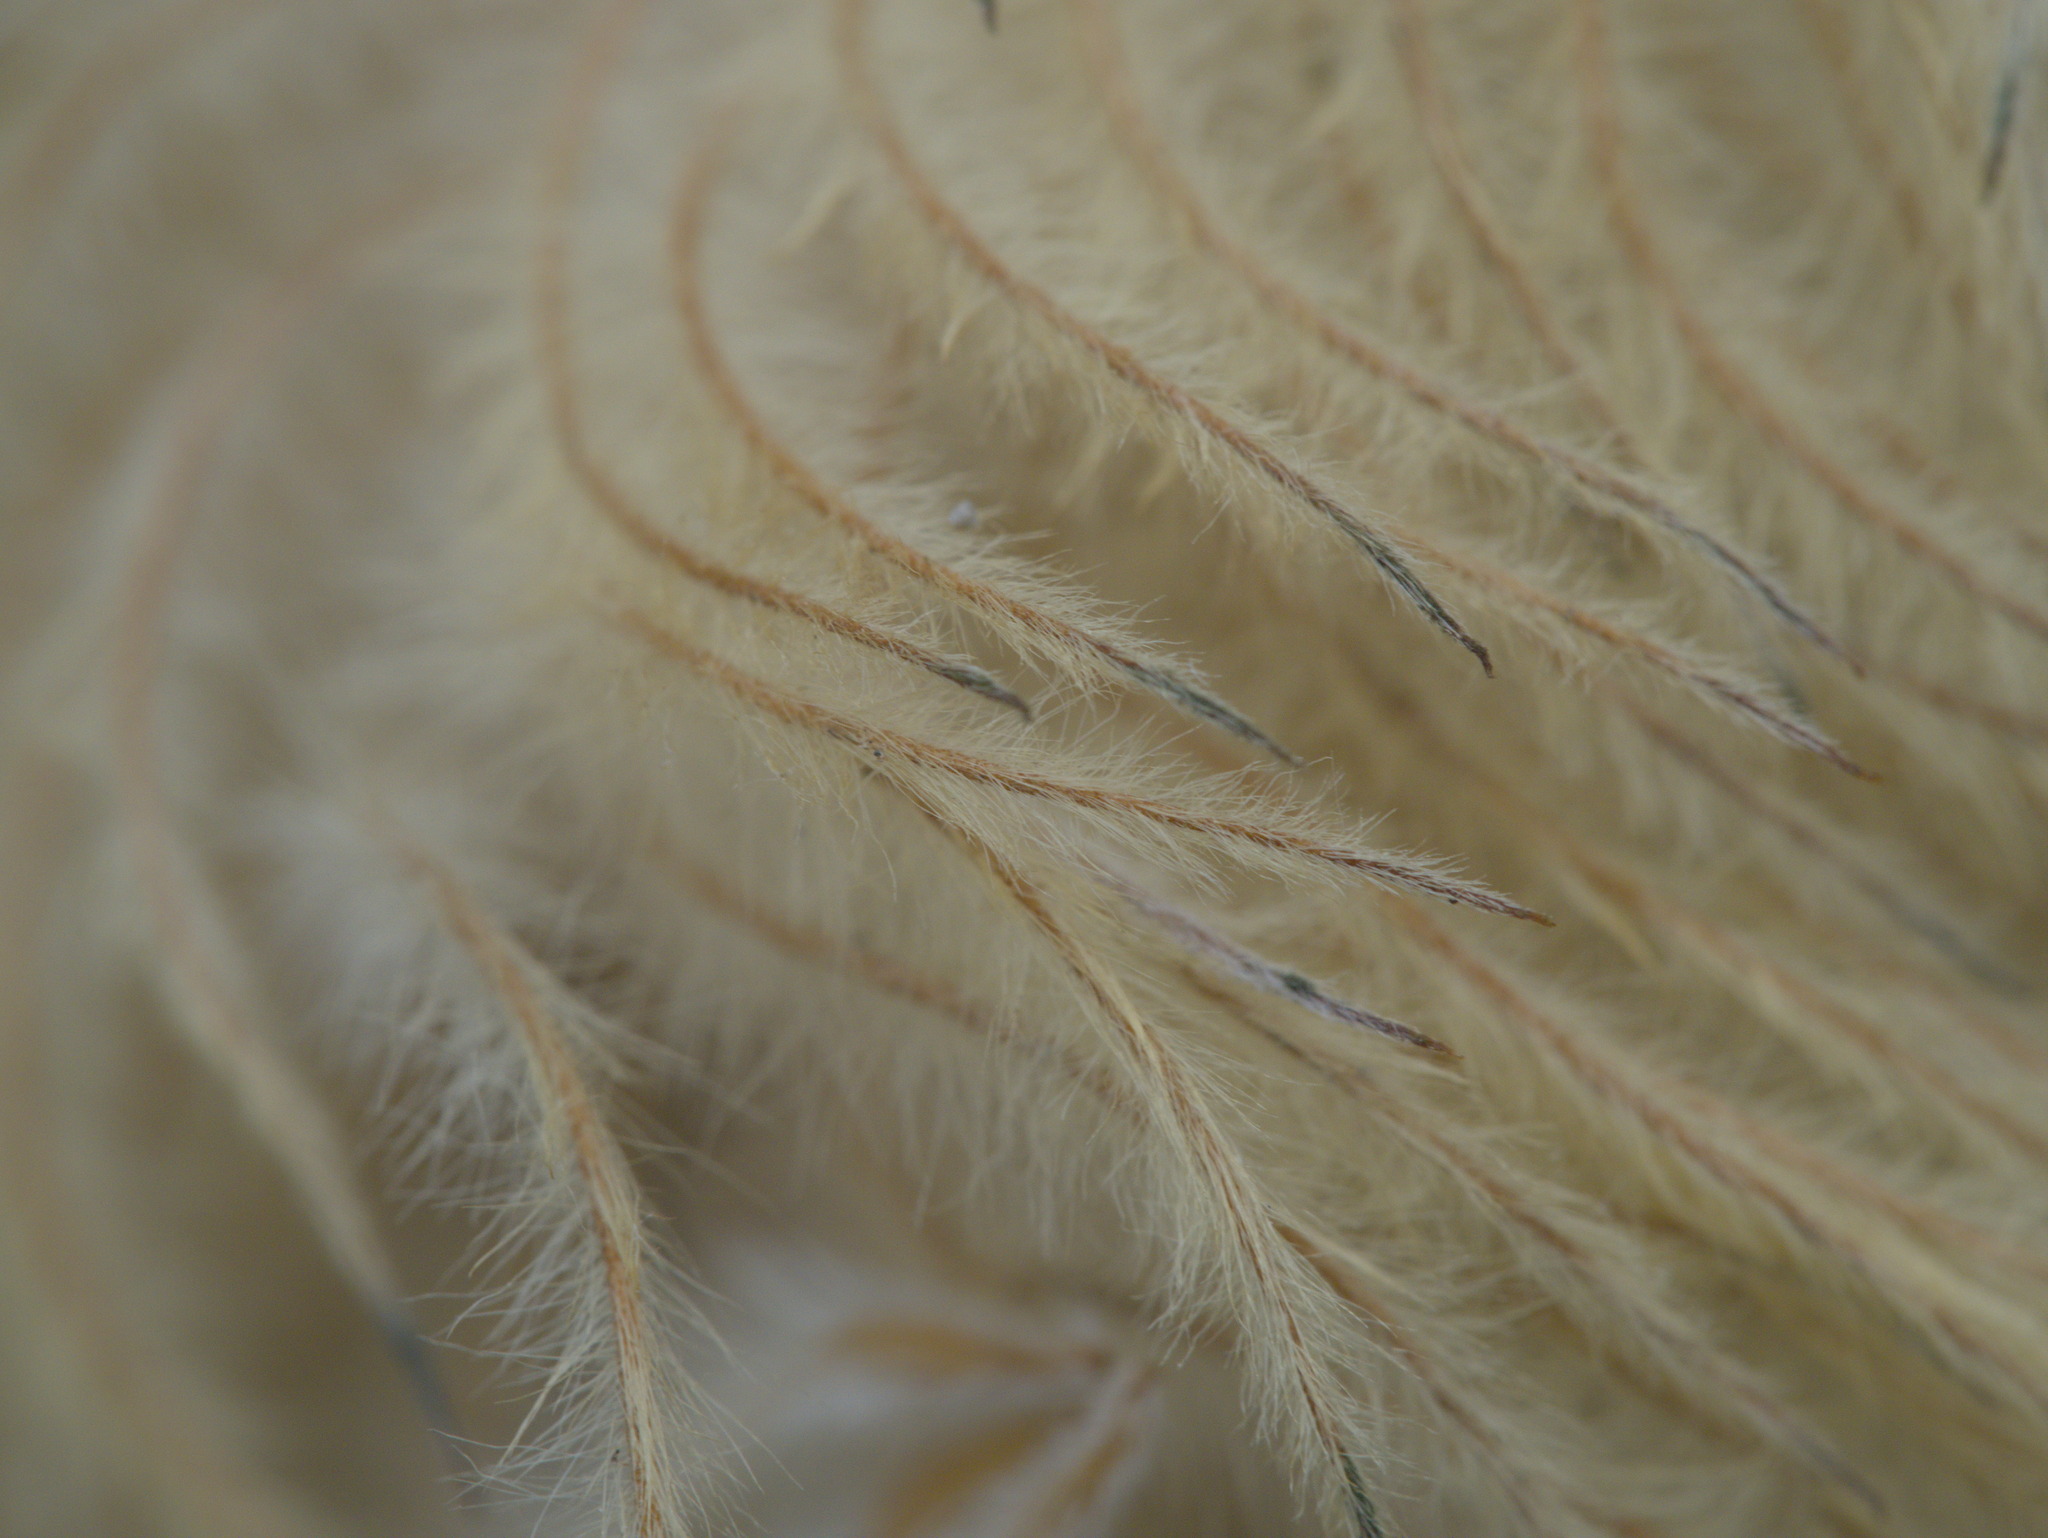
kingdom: Plantae
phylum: Tracheophyta
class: Magnoliopsida
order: Ranunculales
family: Ranunculaceae
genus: Pulsatilla
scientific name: Pulsatilla occidentalis
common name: Mountain pasqueflower
